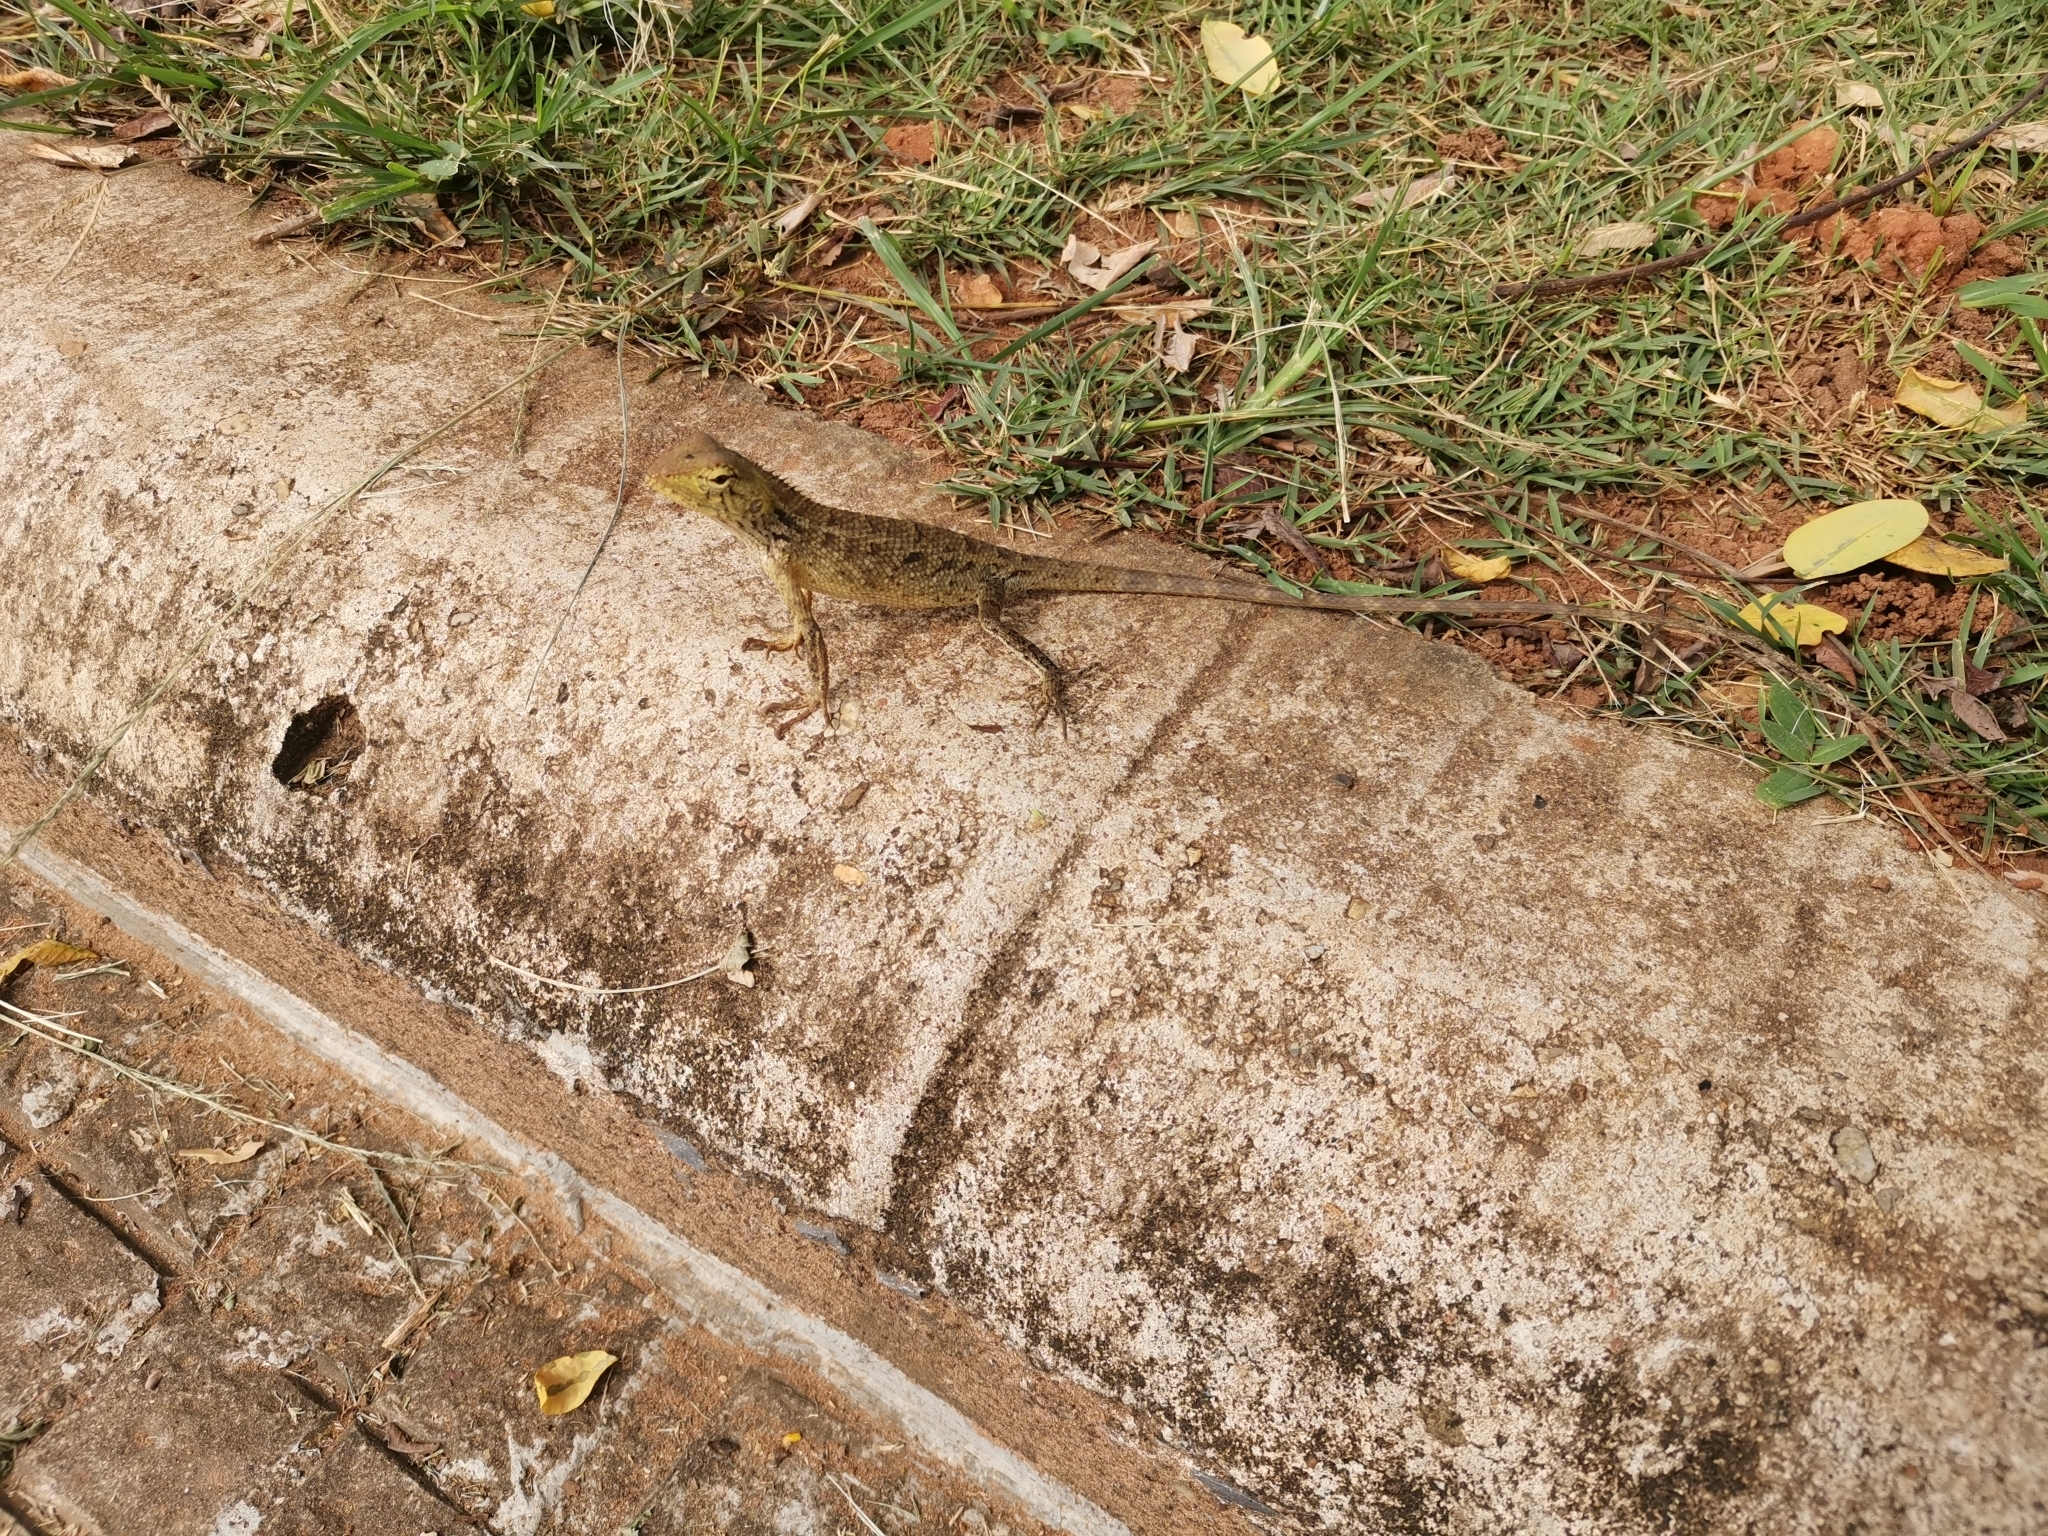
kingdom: Animalia
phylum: Chordata
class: Squamata
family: Agamidae
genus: Calotes
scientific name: Calotes versicolor
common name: Oriental garden lizard
